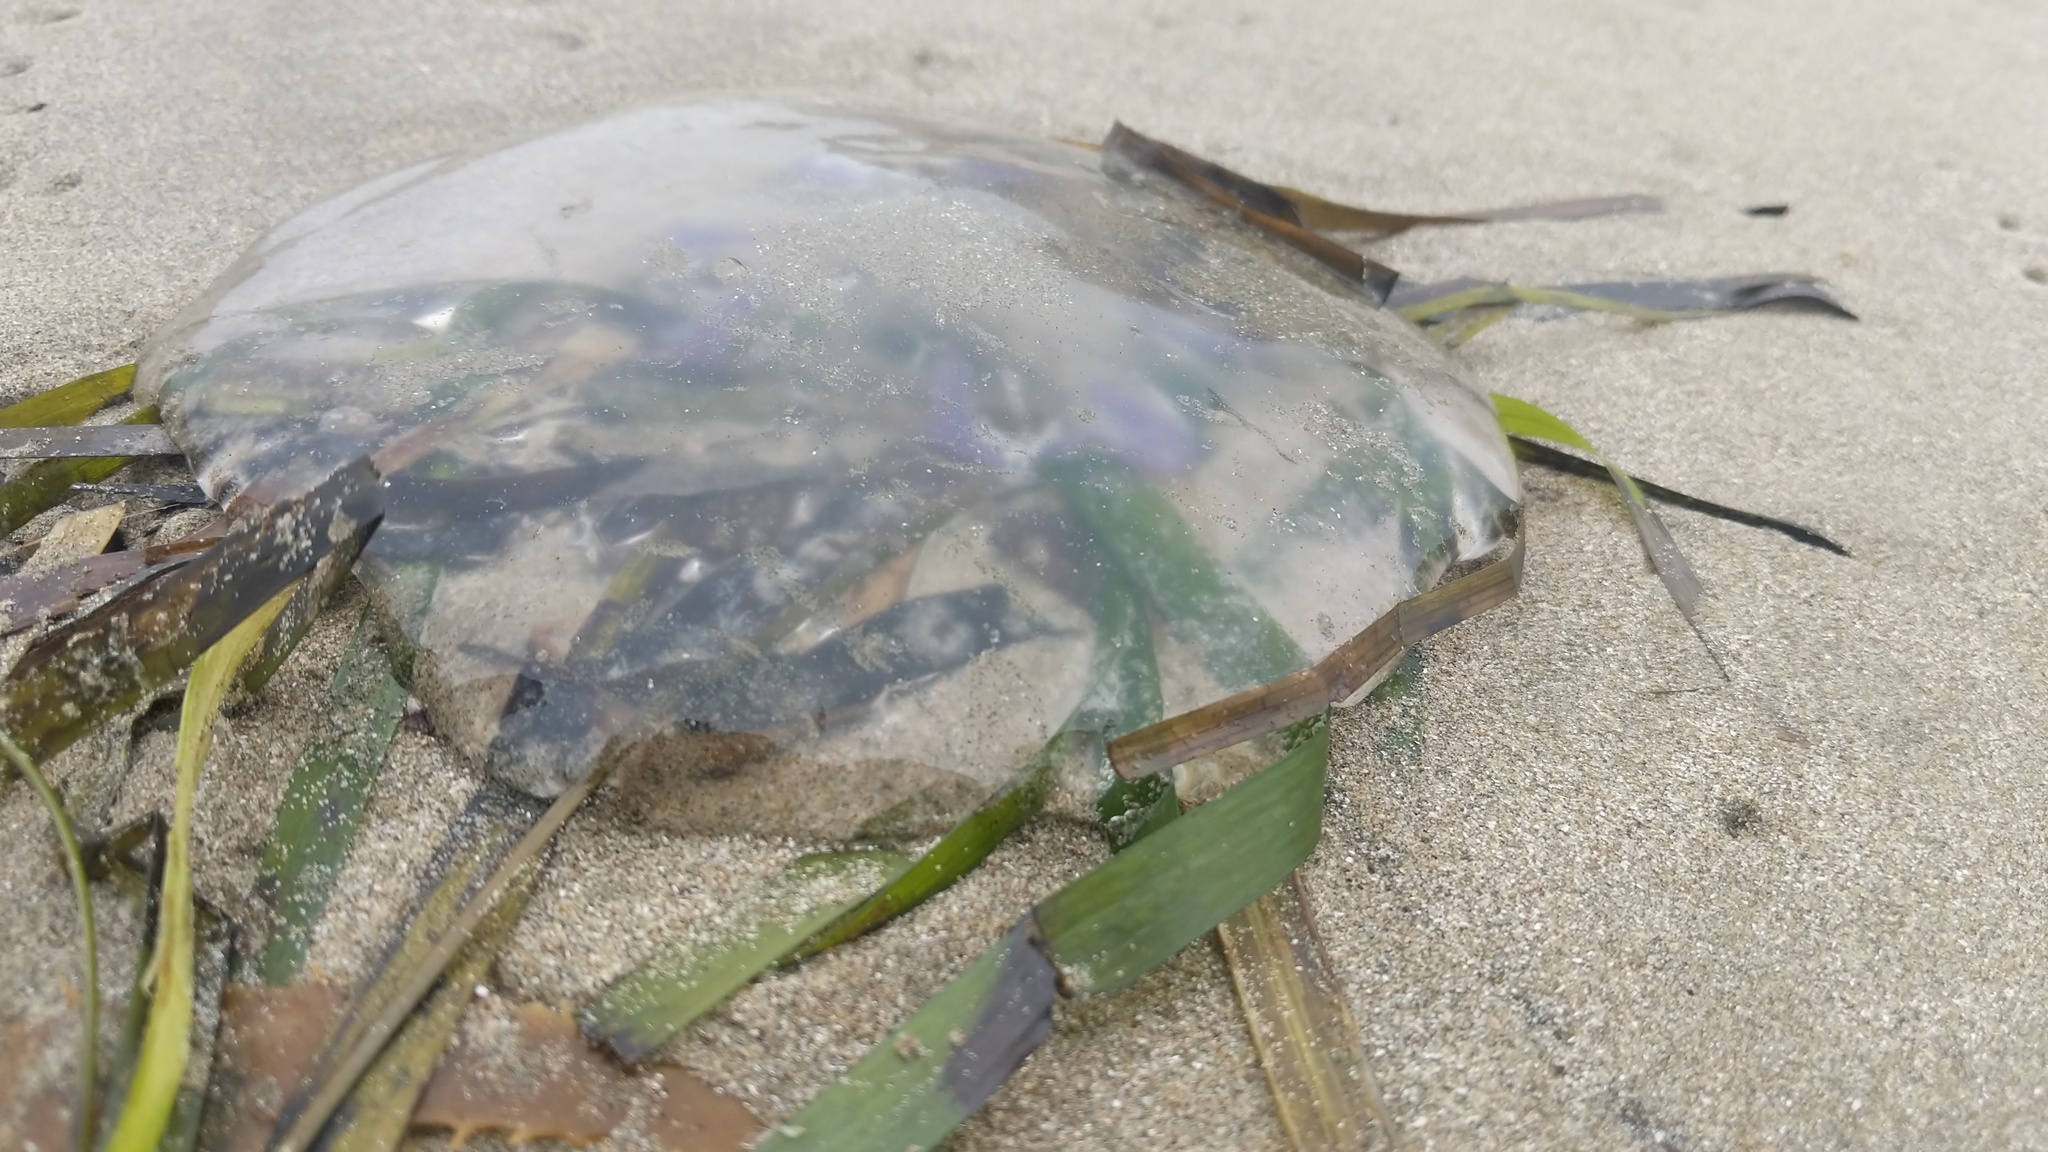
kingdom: Animalia
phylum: Cnidaria
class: Scyphozoa
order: Semaeostomeae
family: Ulmaridae
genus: Aurelia
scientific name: Aurelia labiata
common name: Pacific moon jelly
